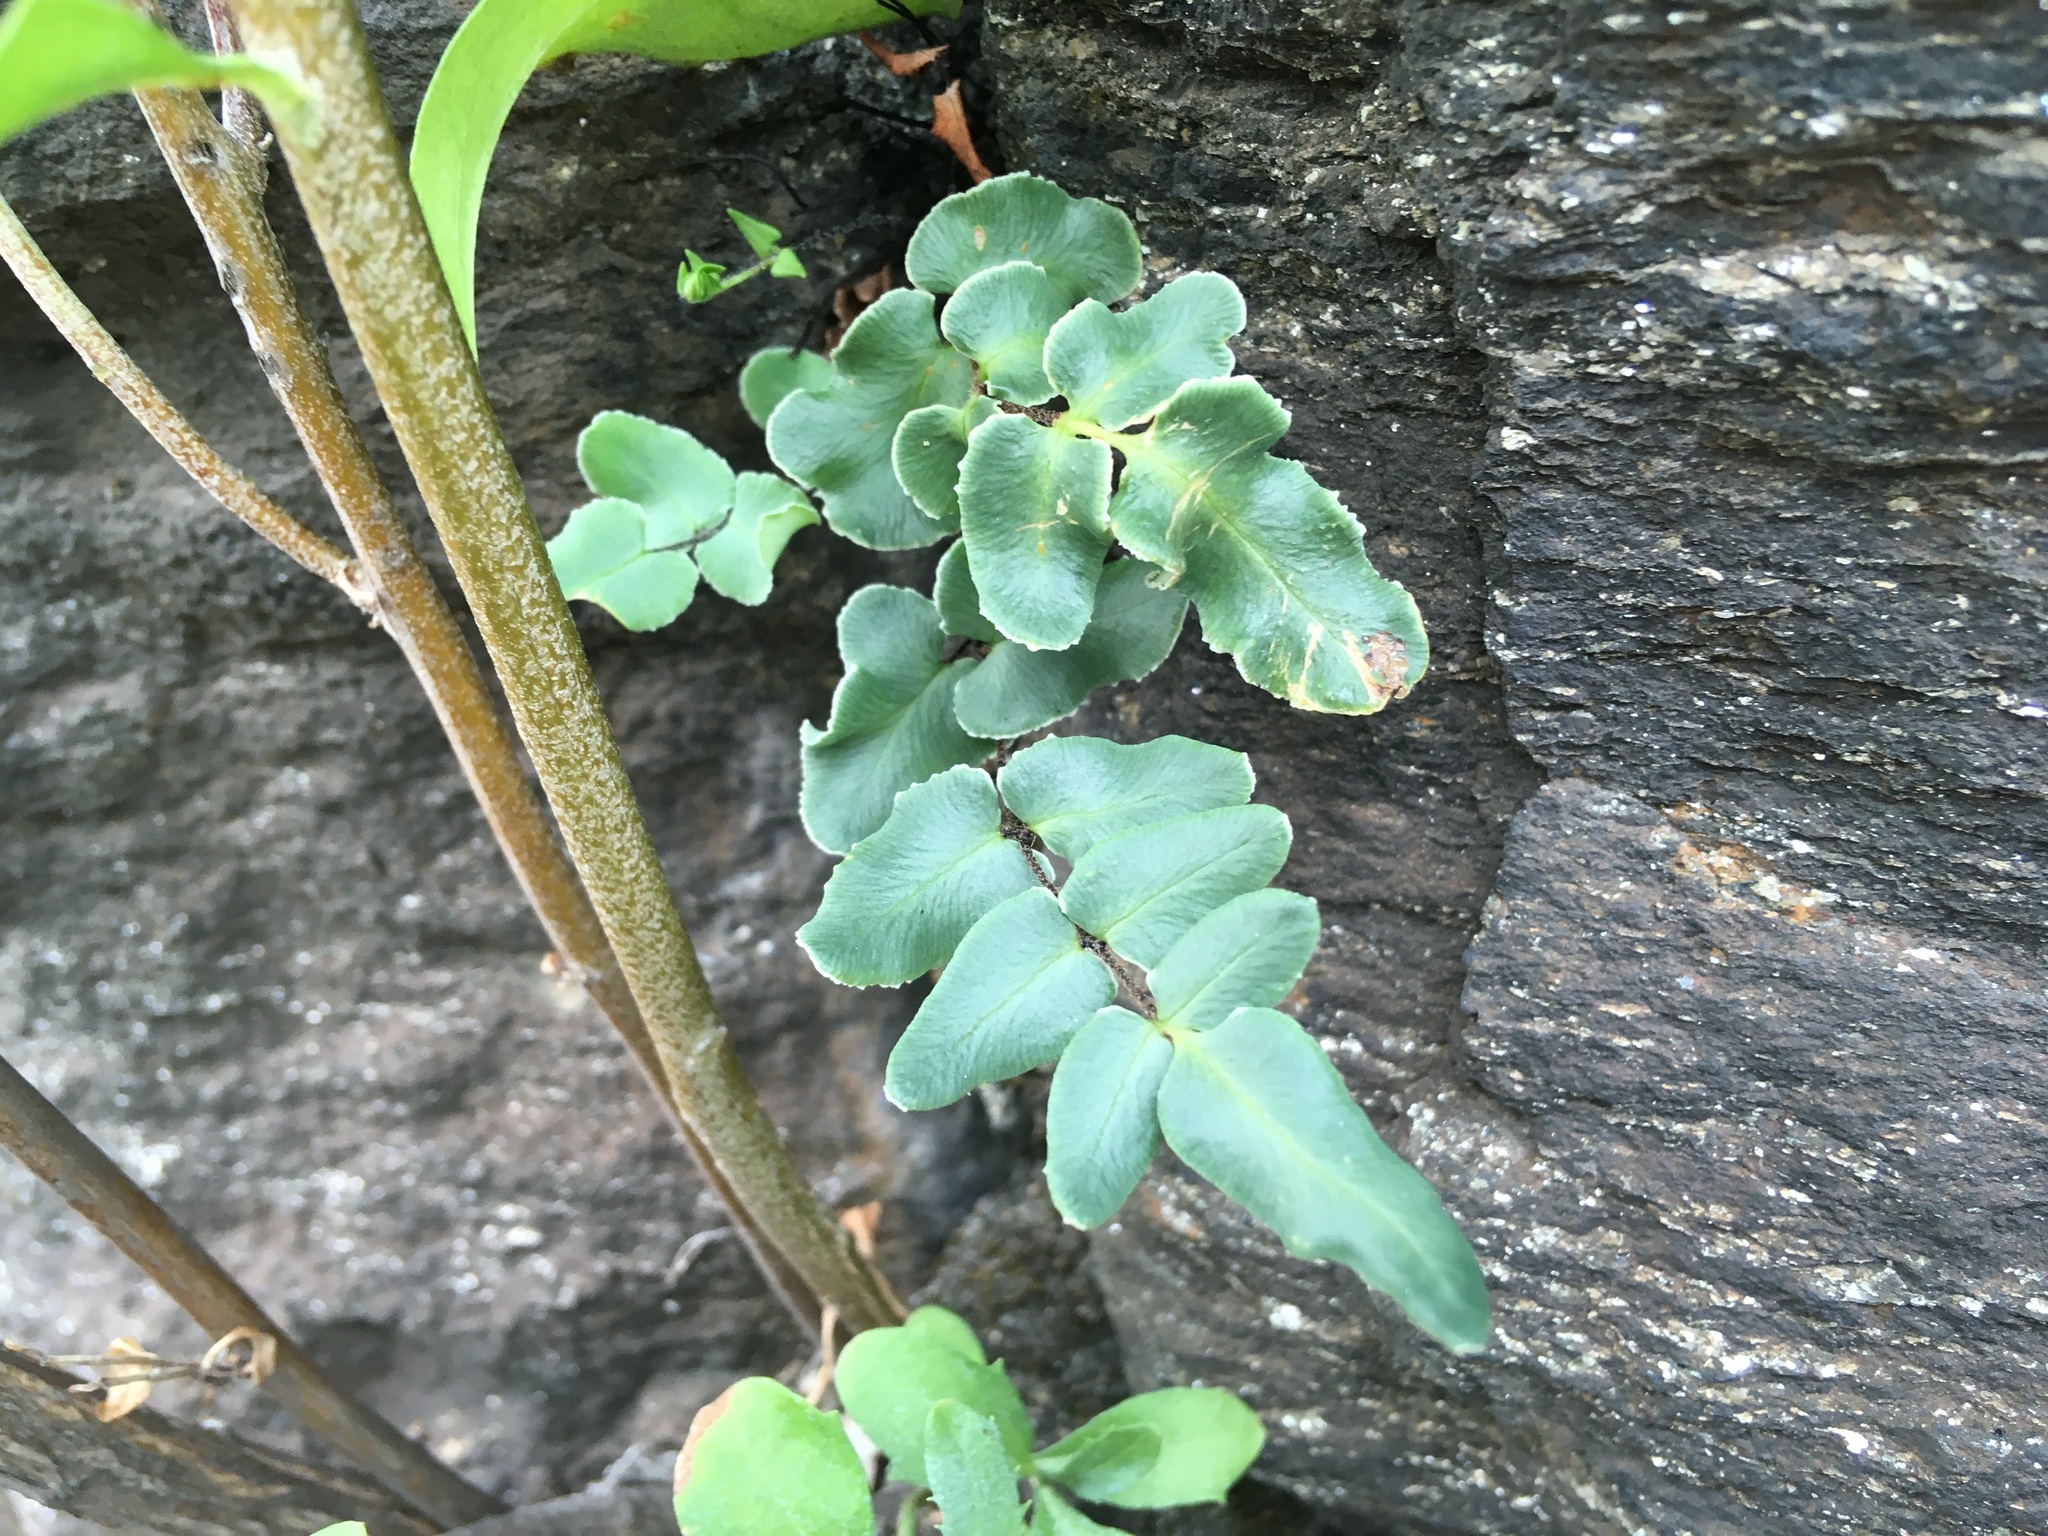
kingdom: Plantae
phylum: Tracheophyta
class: Polypodiopsida
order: Polypodiales
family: Pteridaceae
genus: Pellaea
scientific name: Pellaea atropurpurea
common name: Hairy cliffbrake
